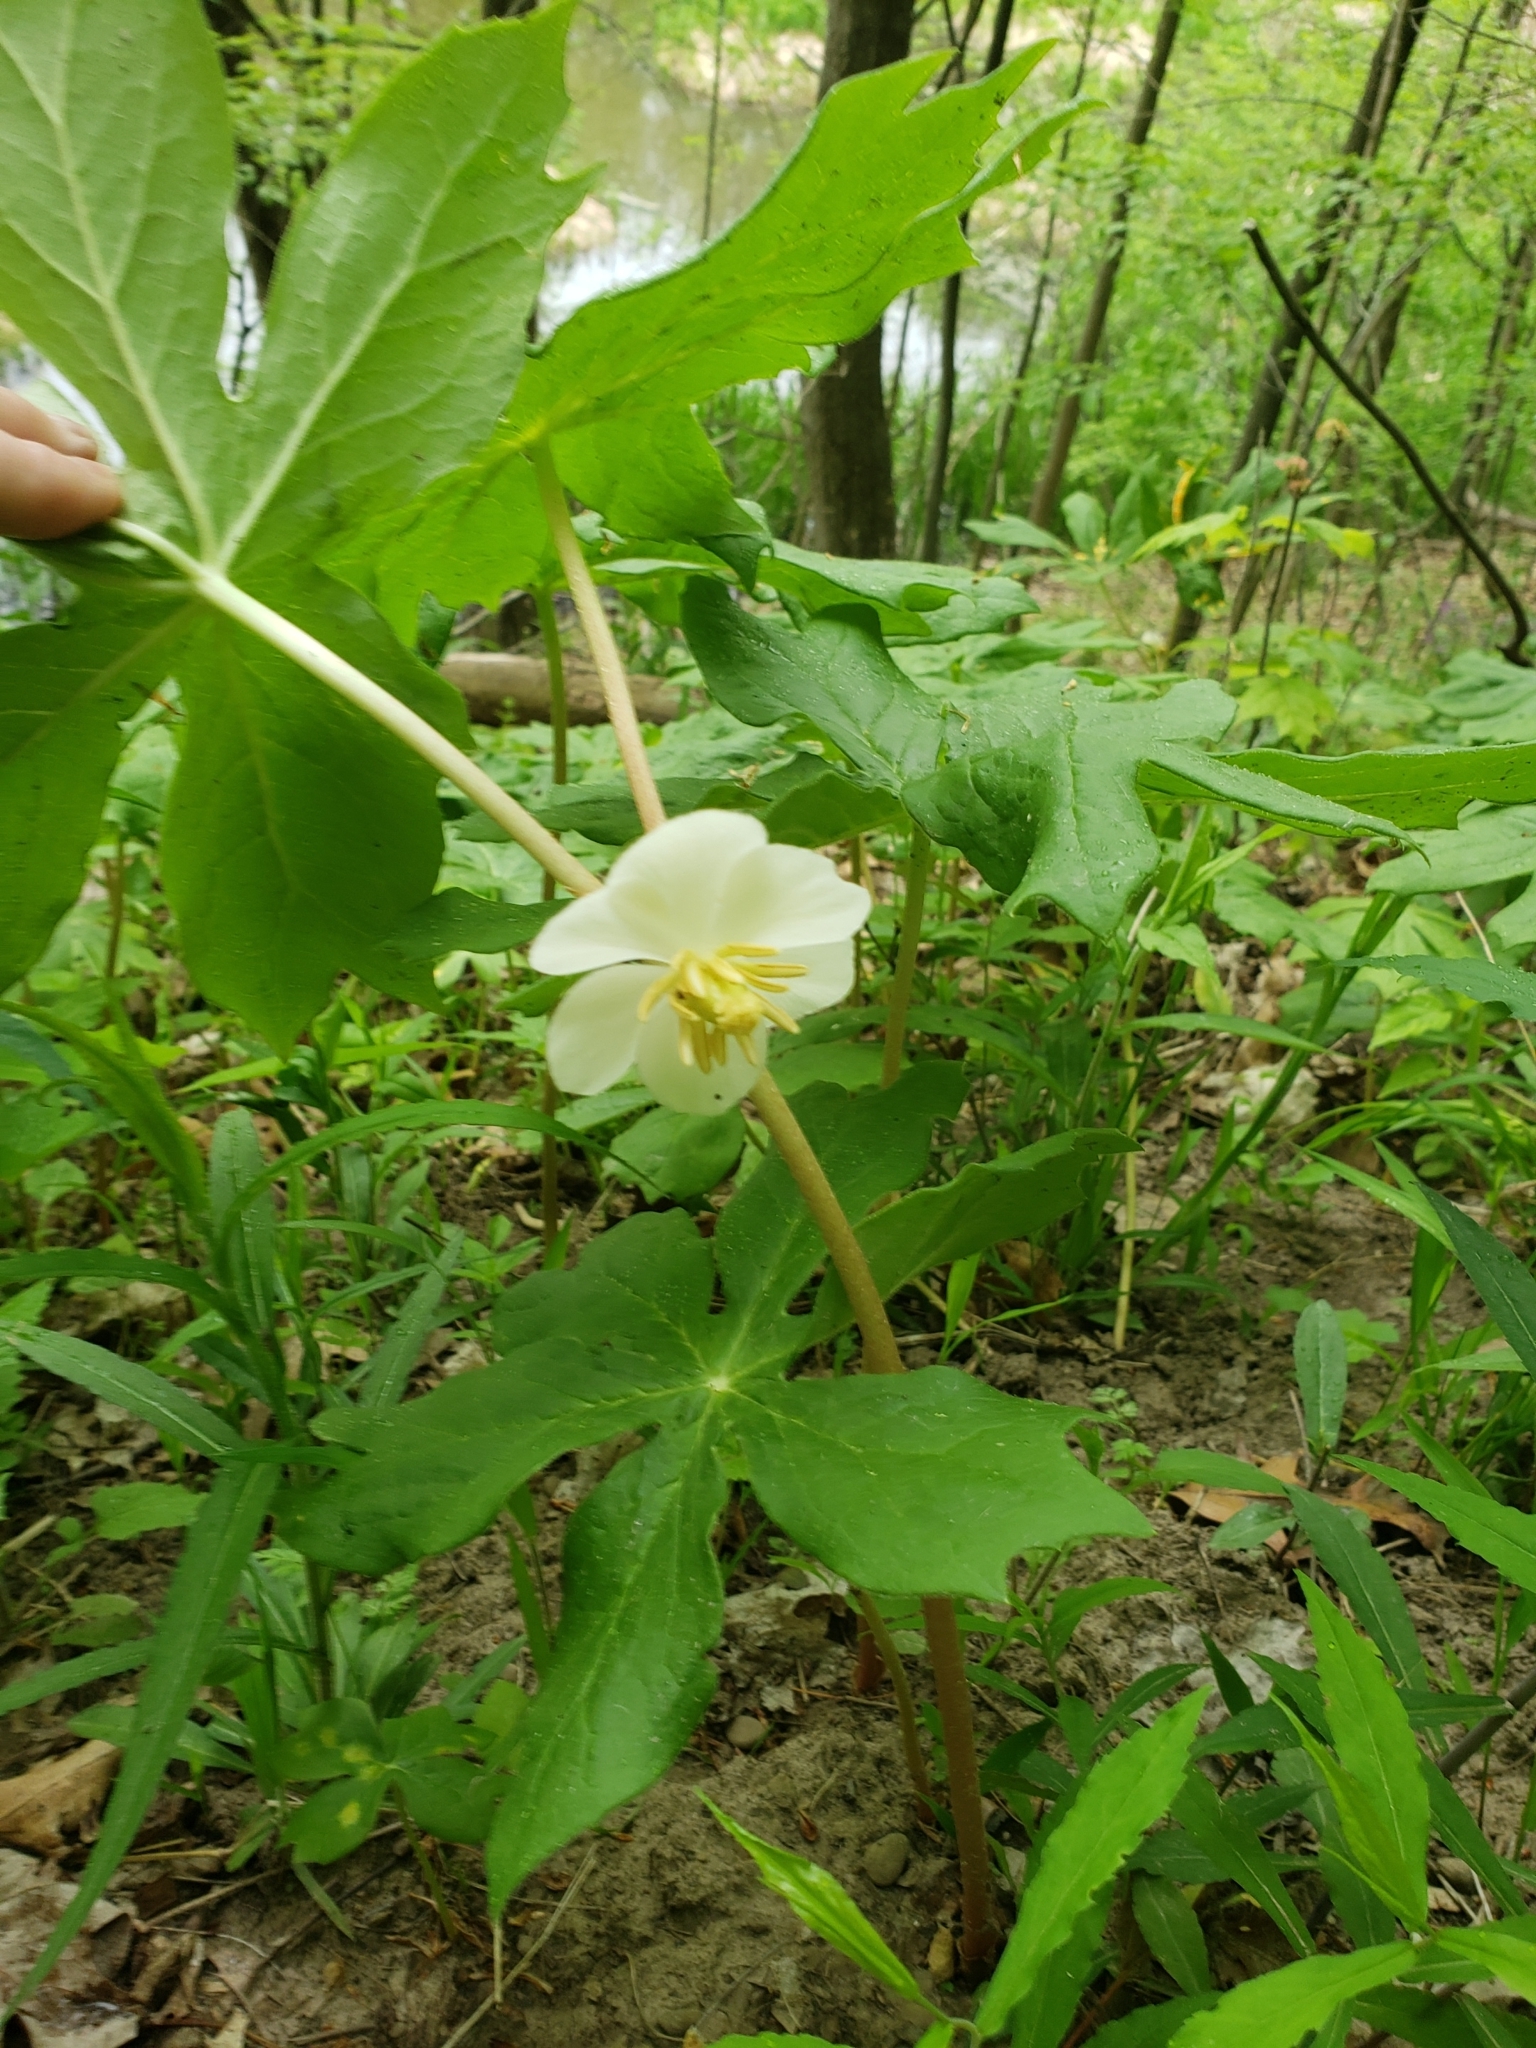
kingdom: Plantae
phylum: Tracheophyta
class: Magnoliopsida
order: Ranunculales
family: Berberidaceae
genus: Podophyllum
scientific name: Podophyllum peltatum
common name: Wild mandrake
